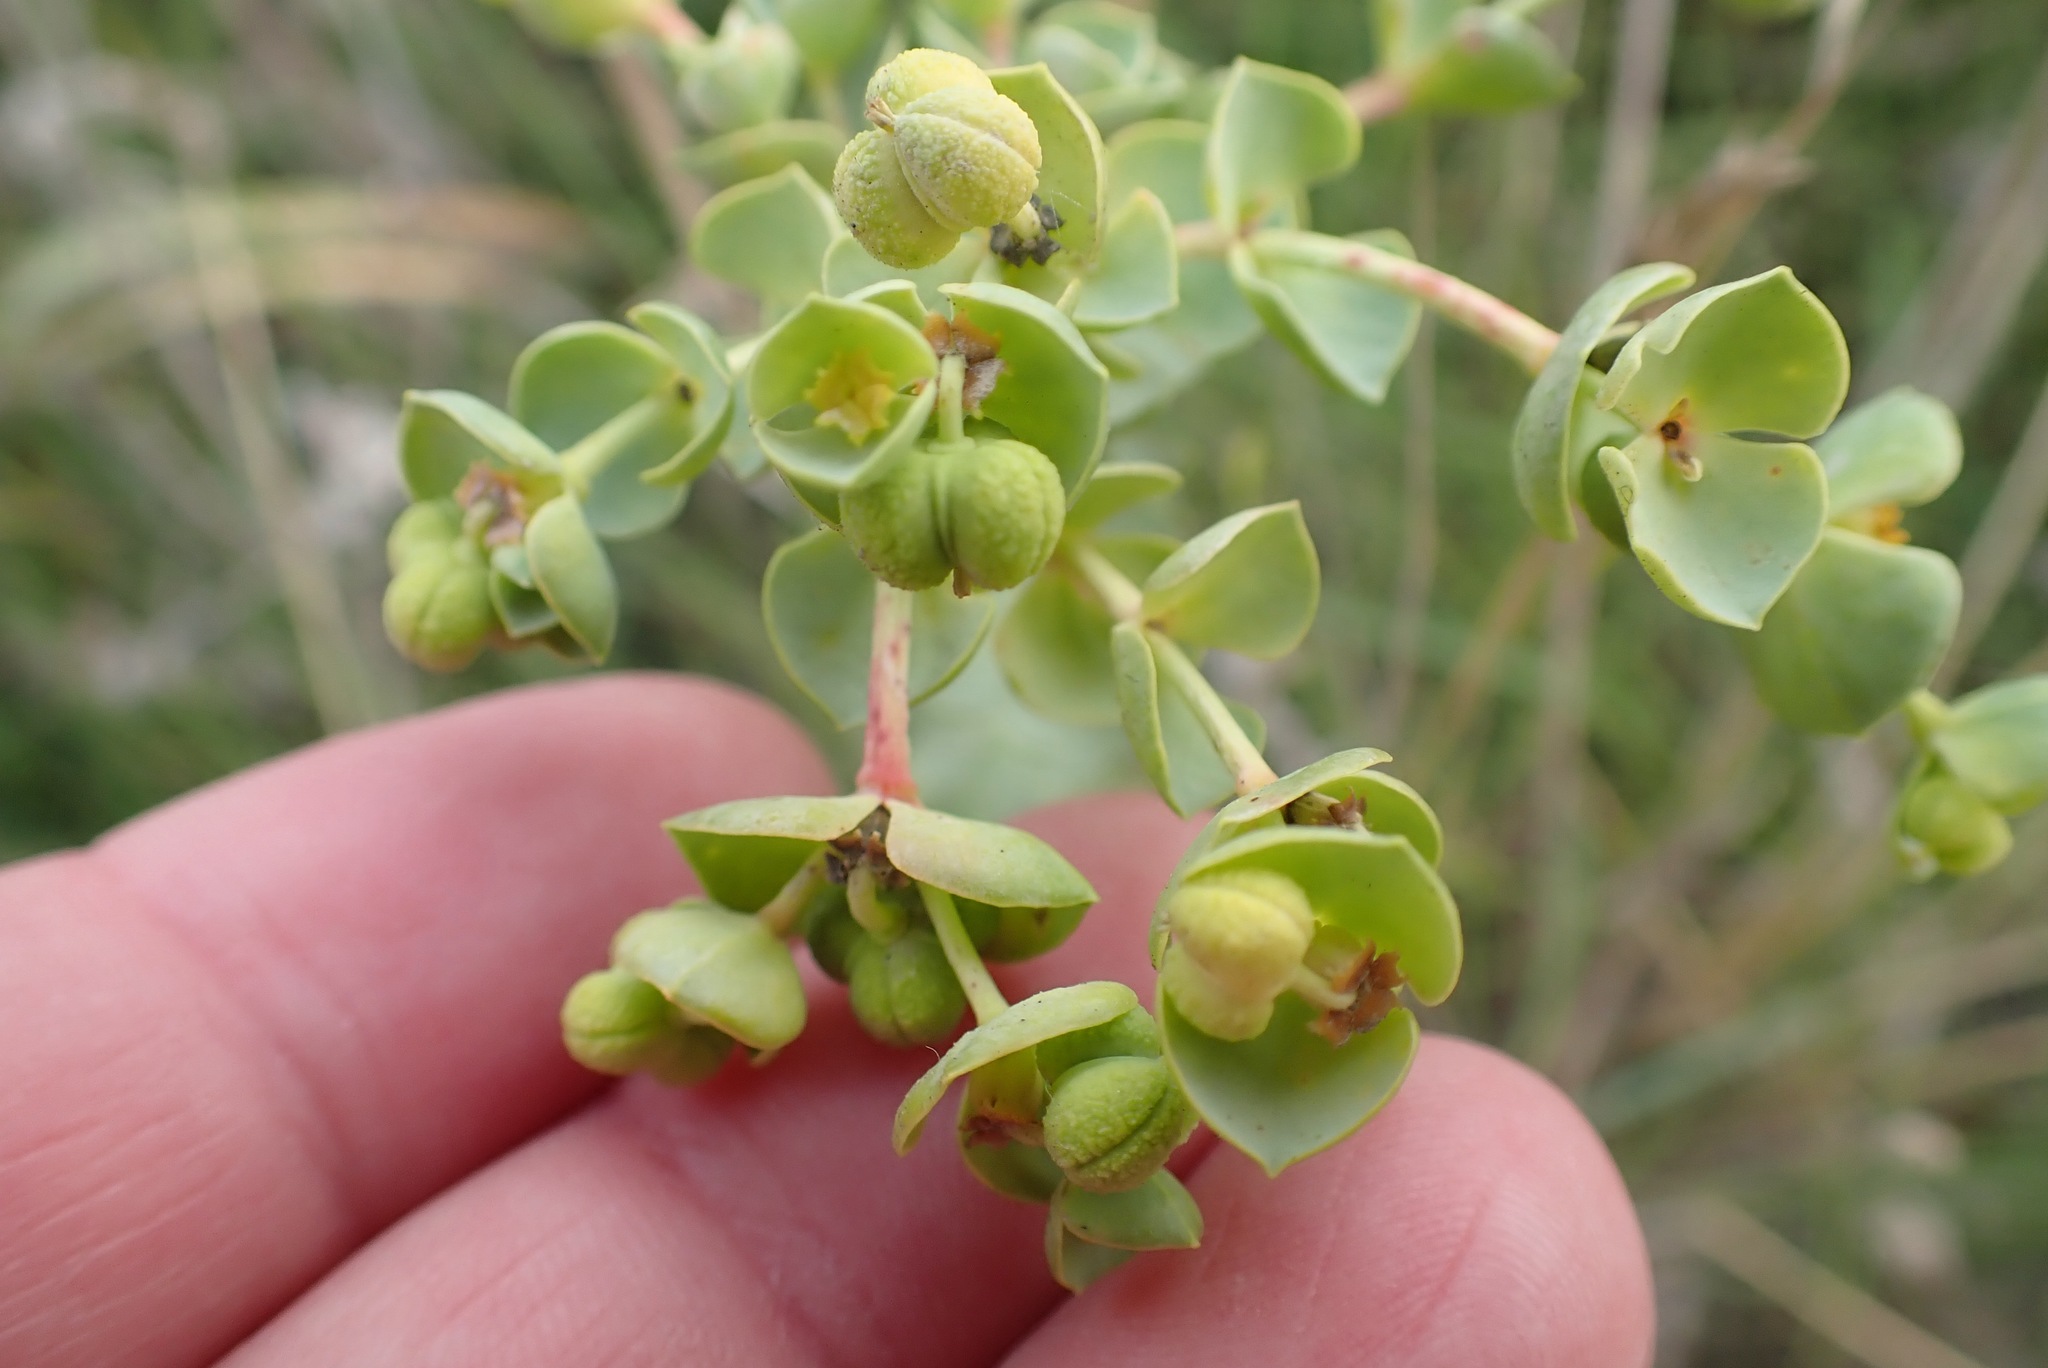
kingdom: Plantae
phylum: Tracheophyta
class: Magnoliopsida
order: Malpighiales
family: Euphorbiaceae
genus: Euphorbia
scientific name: Euphorbia paralias
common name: Sea spurge
